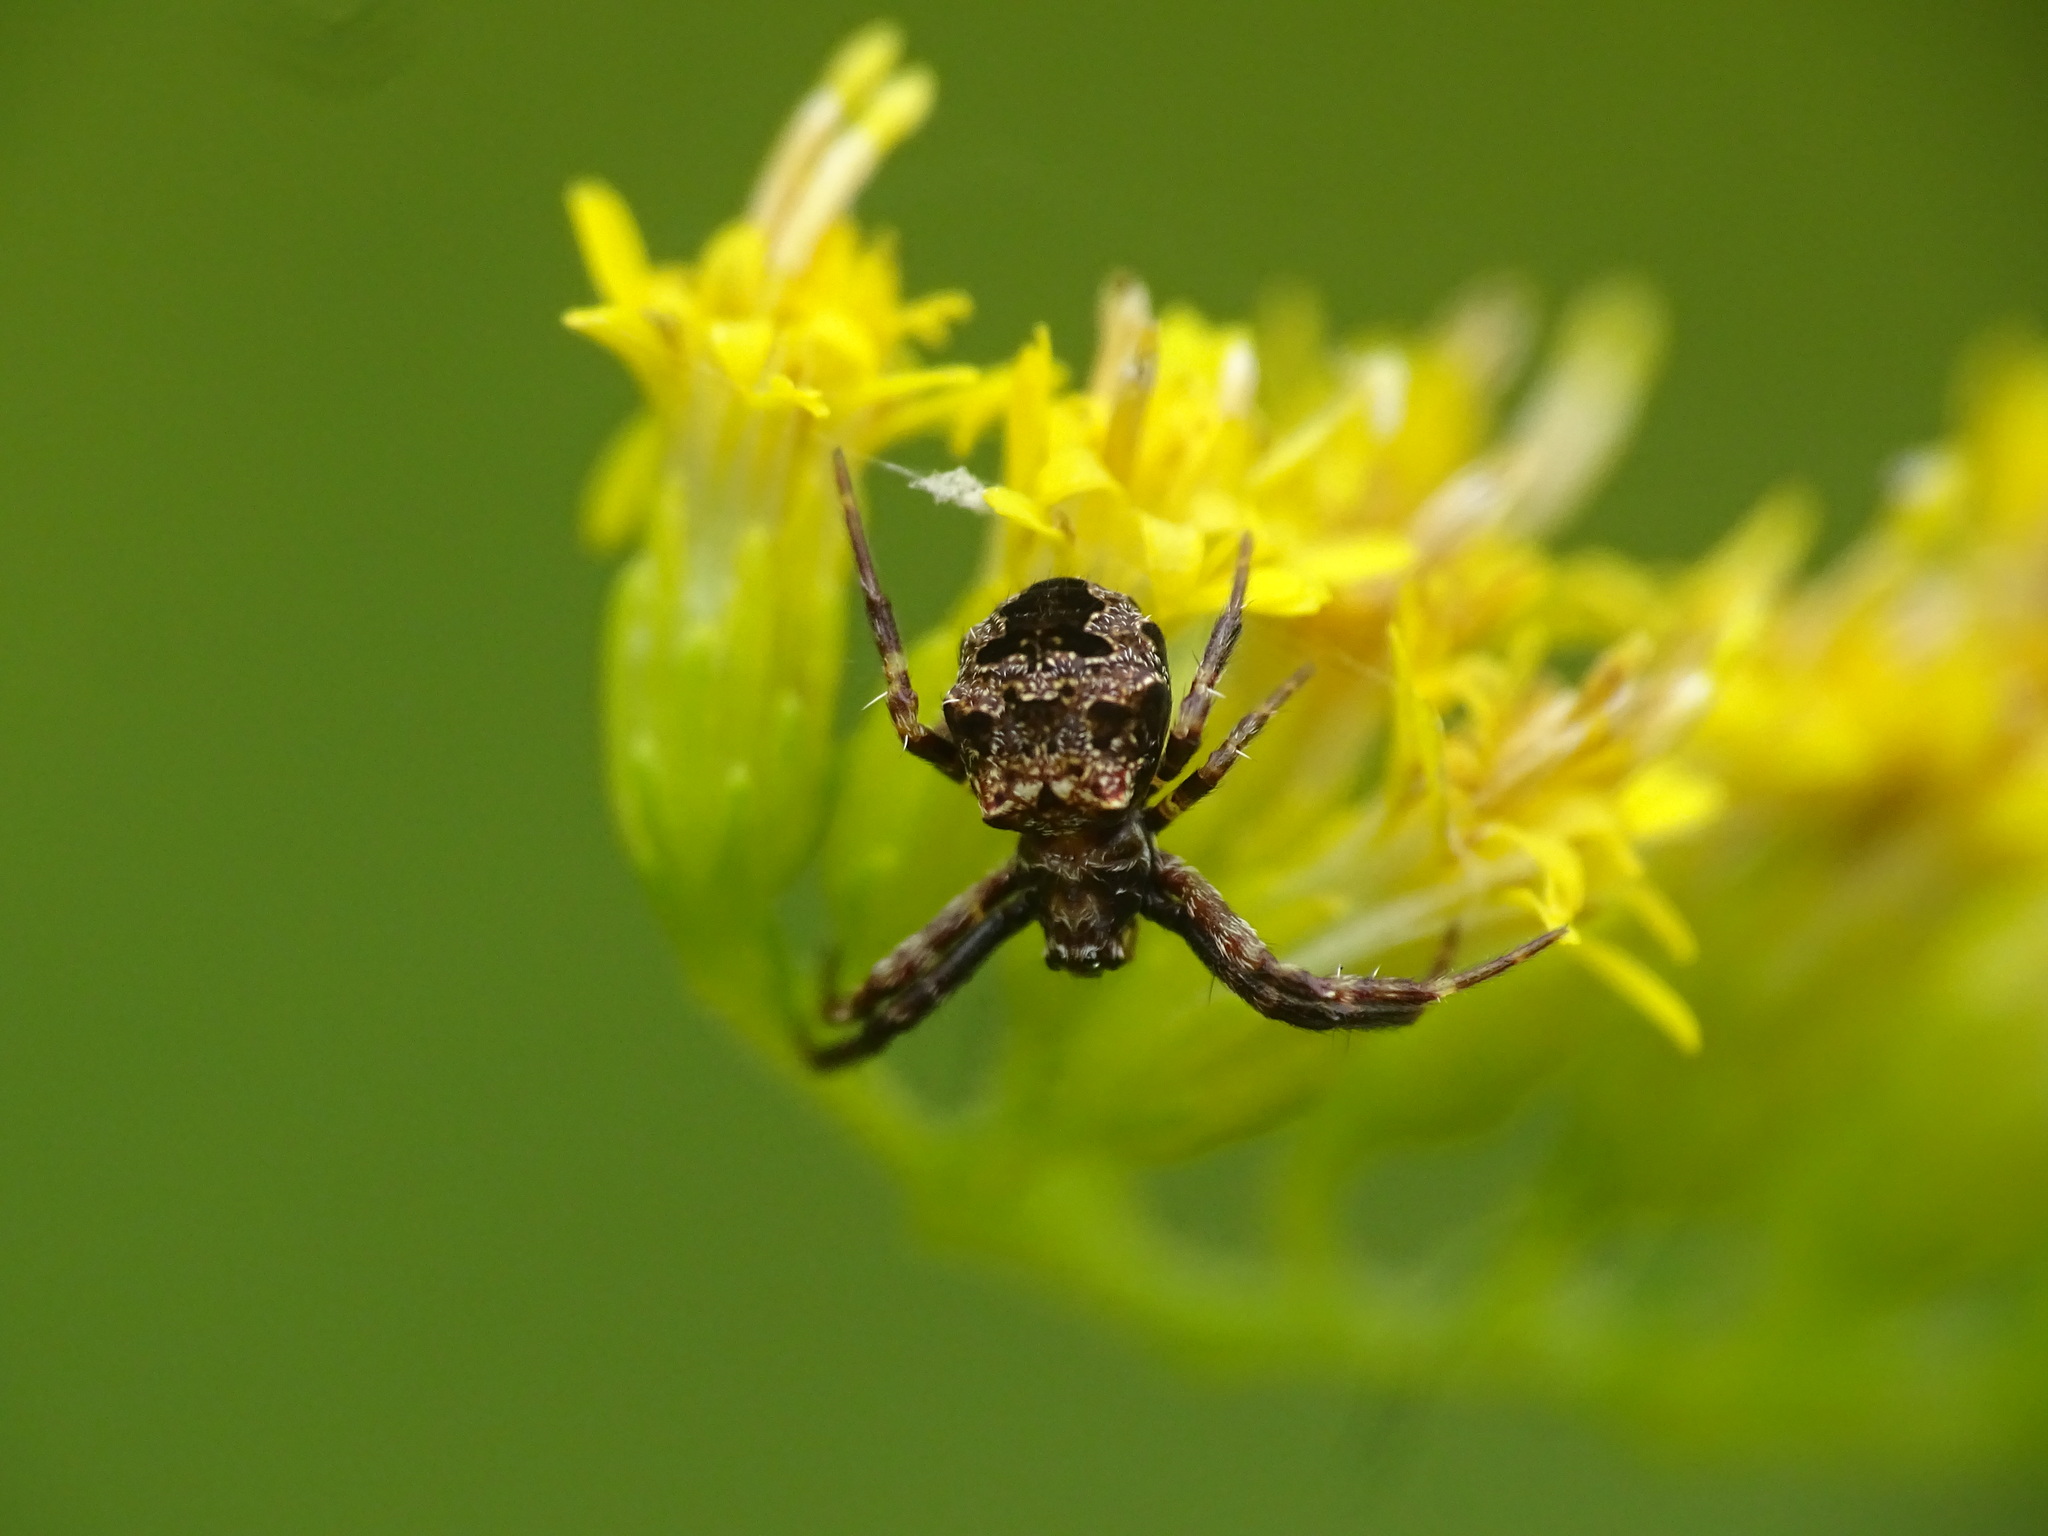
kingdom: Animalia
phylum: Arthropoda
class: Arachnida
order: Araneae
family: Araneidae
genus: Gea
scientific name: Gea heptagon
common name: Orb weavers
